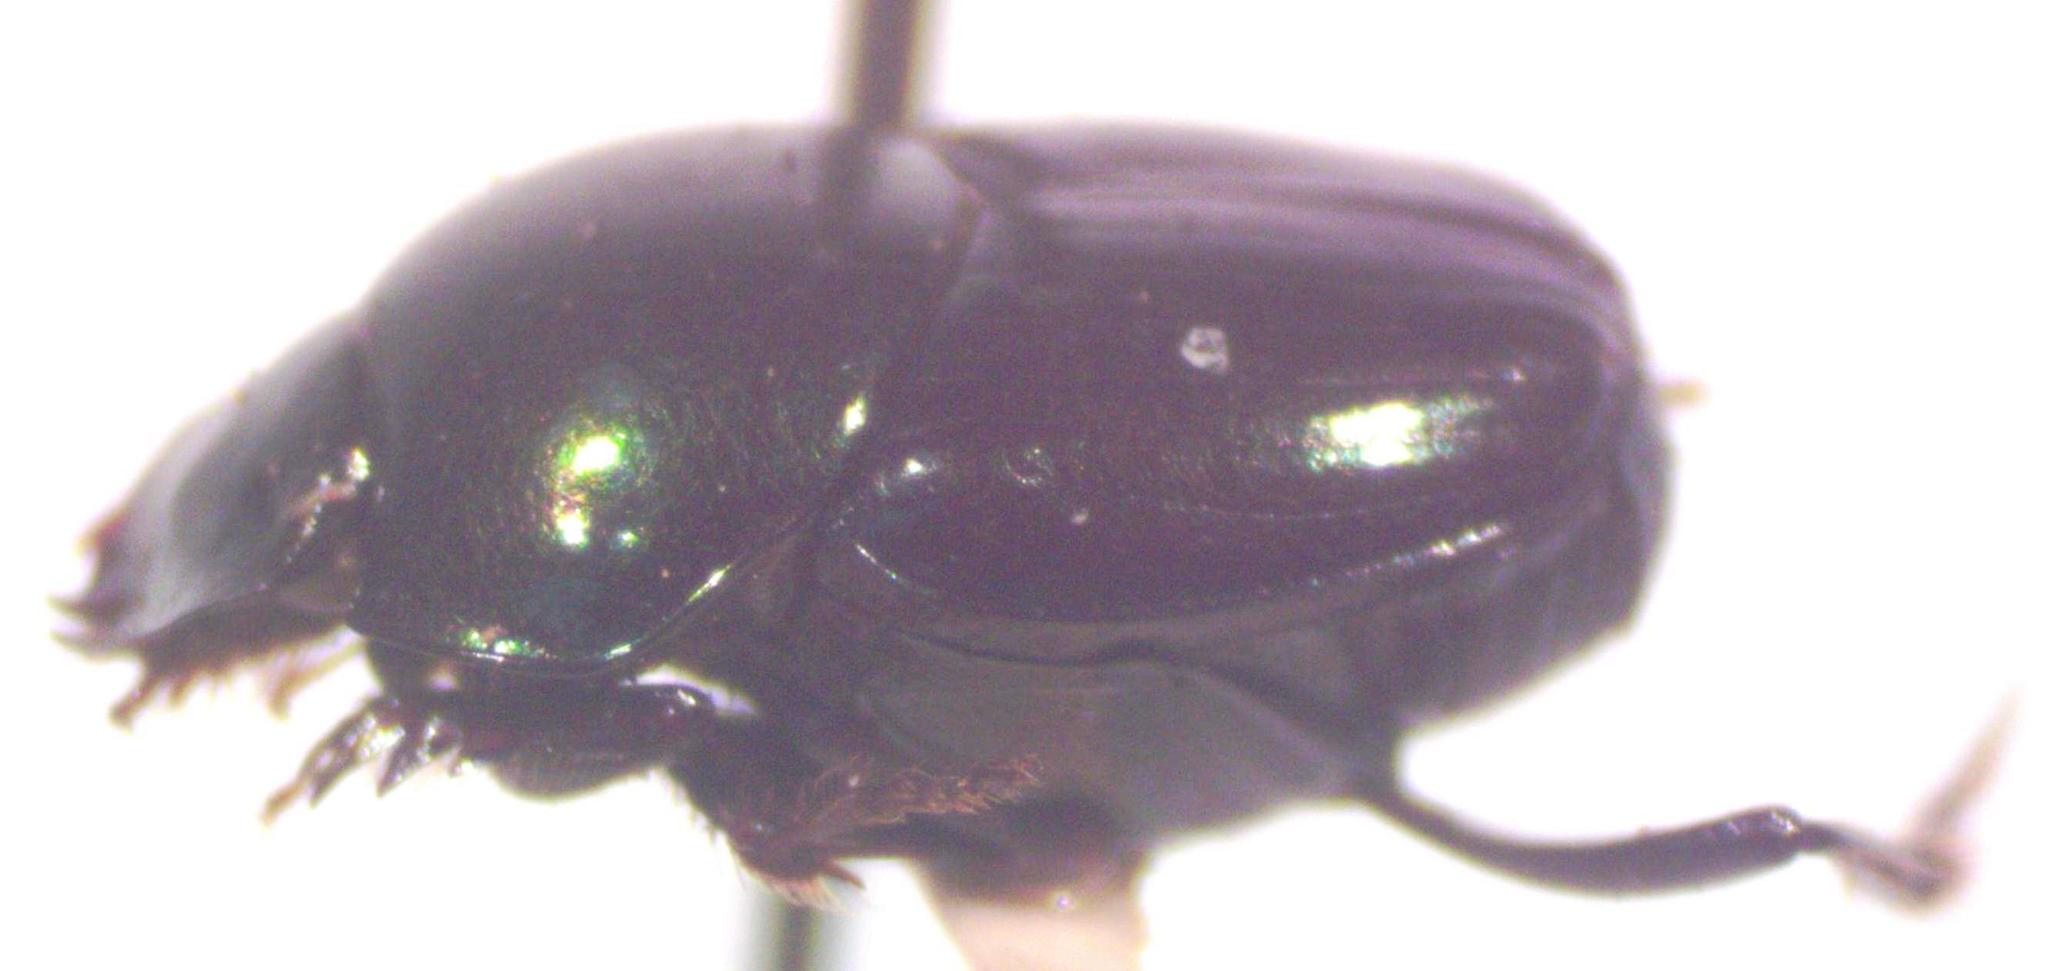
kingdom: Animalia
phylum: Arthropoda
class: Insecta
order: Coleoptera
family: Scarabaeidae
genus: Onthophagus
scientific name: Onthophagus tapirus
